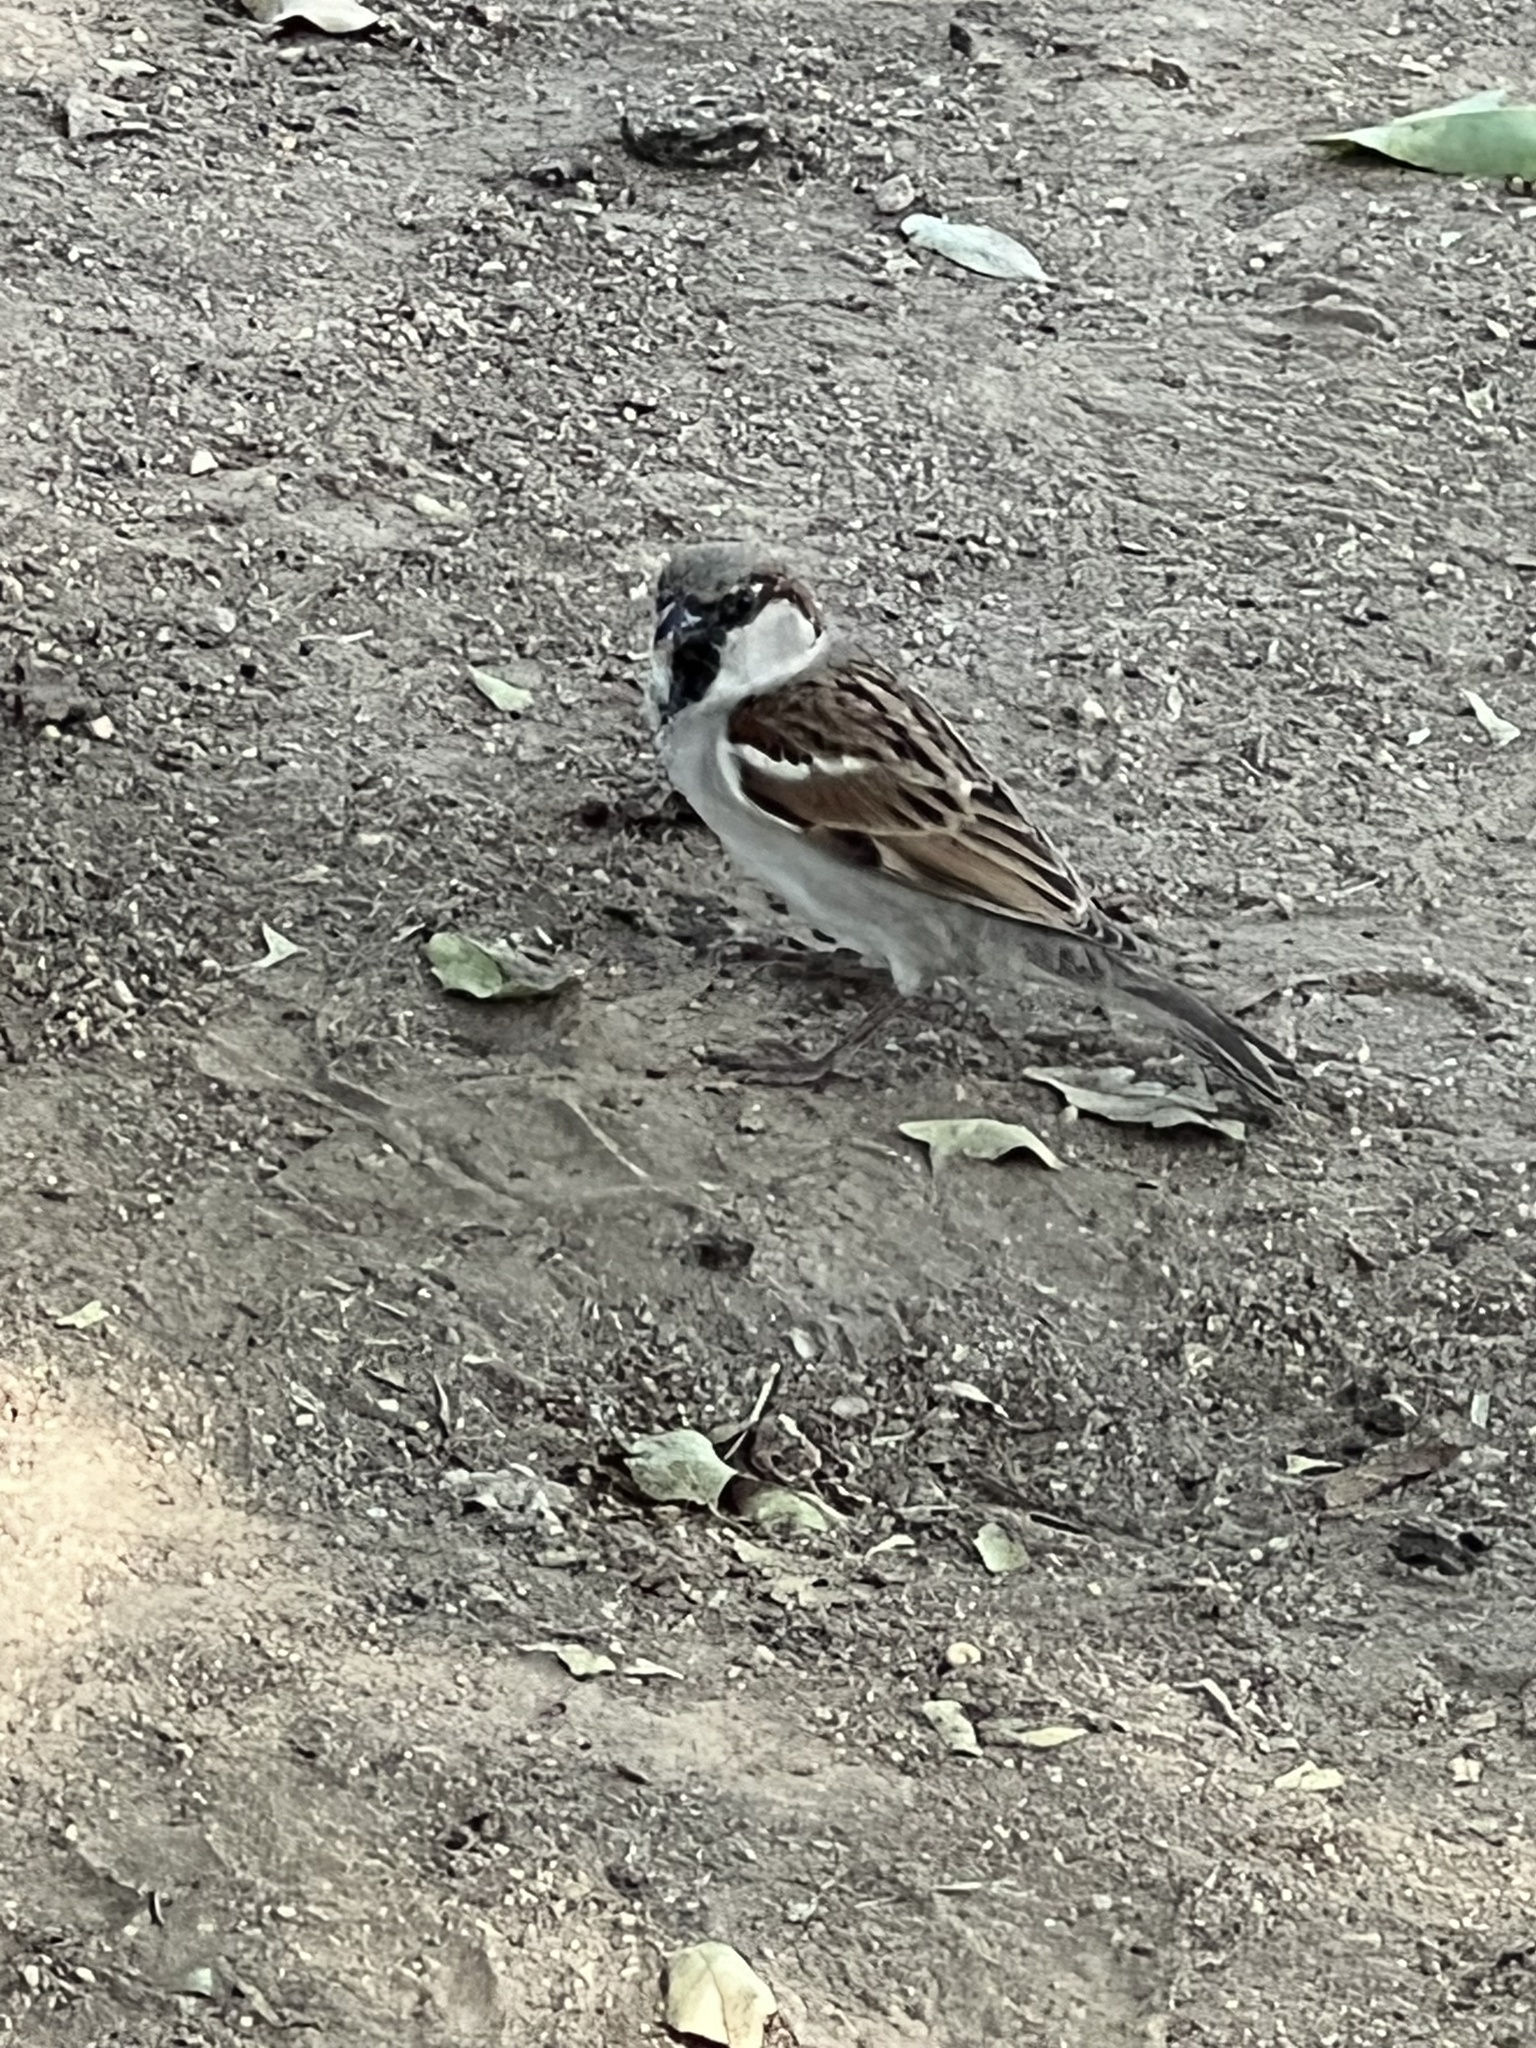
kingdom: Animalia
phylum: Chordata
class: Aves
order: Passeriformes
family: Passeridae
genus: Passer
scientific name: Passer domesticus
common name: House sparrow
